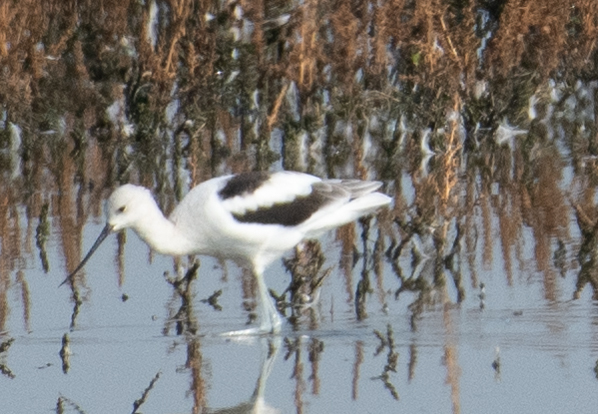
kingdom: Animalia
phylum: Chordata
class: Aves
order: Charadriiformes
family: Recurvirostridae
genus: Recurvirostra
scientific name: Recurvirostra americana
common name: American avocet
